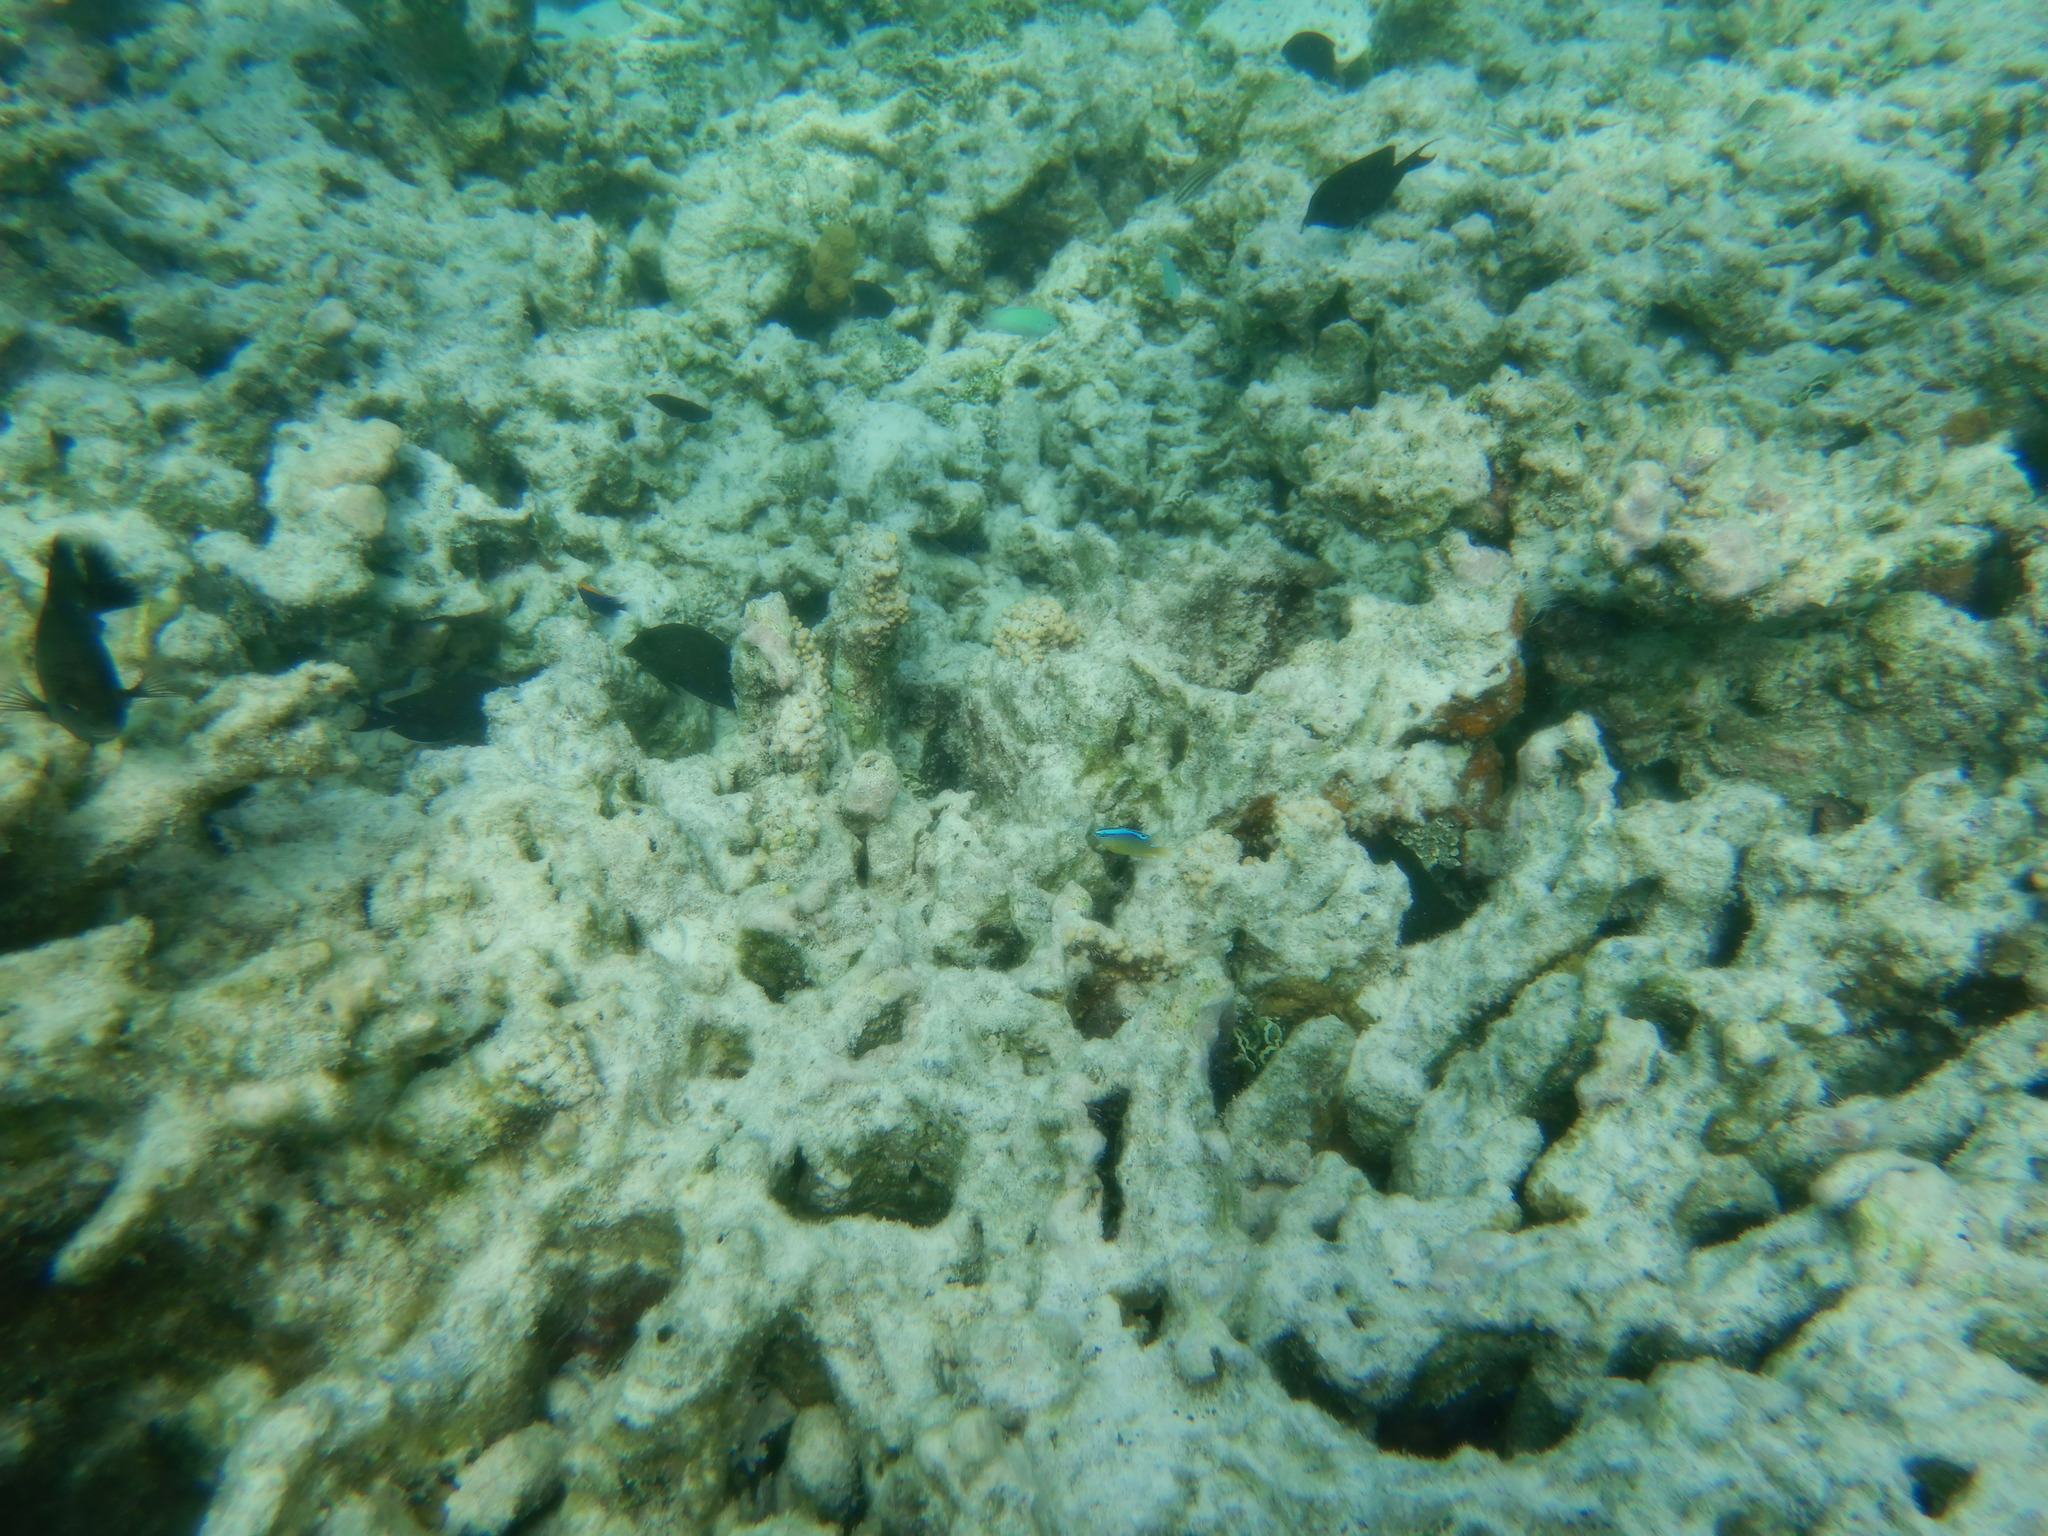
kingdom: Animalia
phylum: Chordata
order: Perciformes
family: Pomacentridae
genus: Chrysiptera
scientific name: Chrysiptera brownriggii
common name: Surge demoiselle
